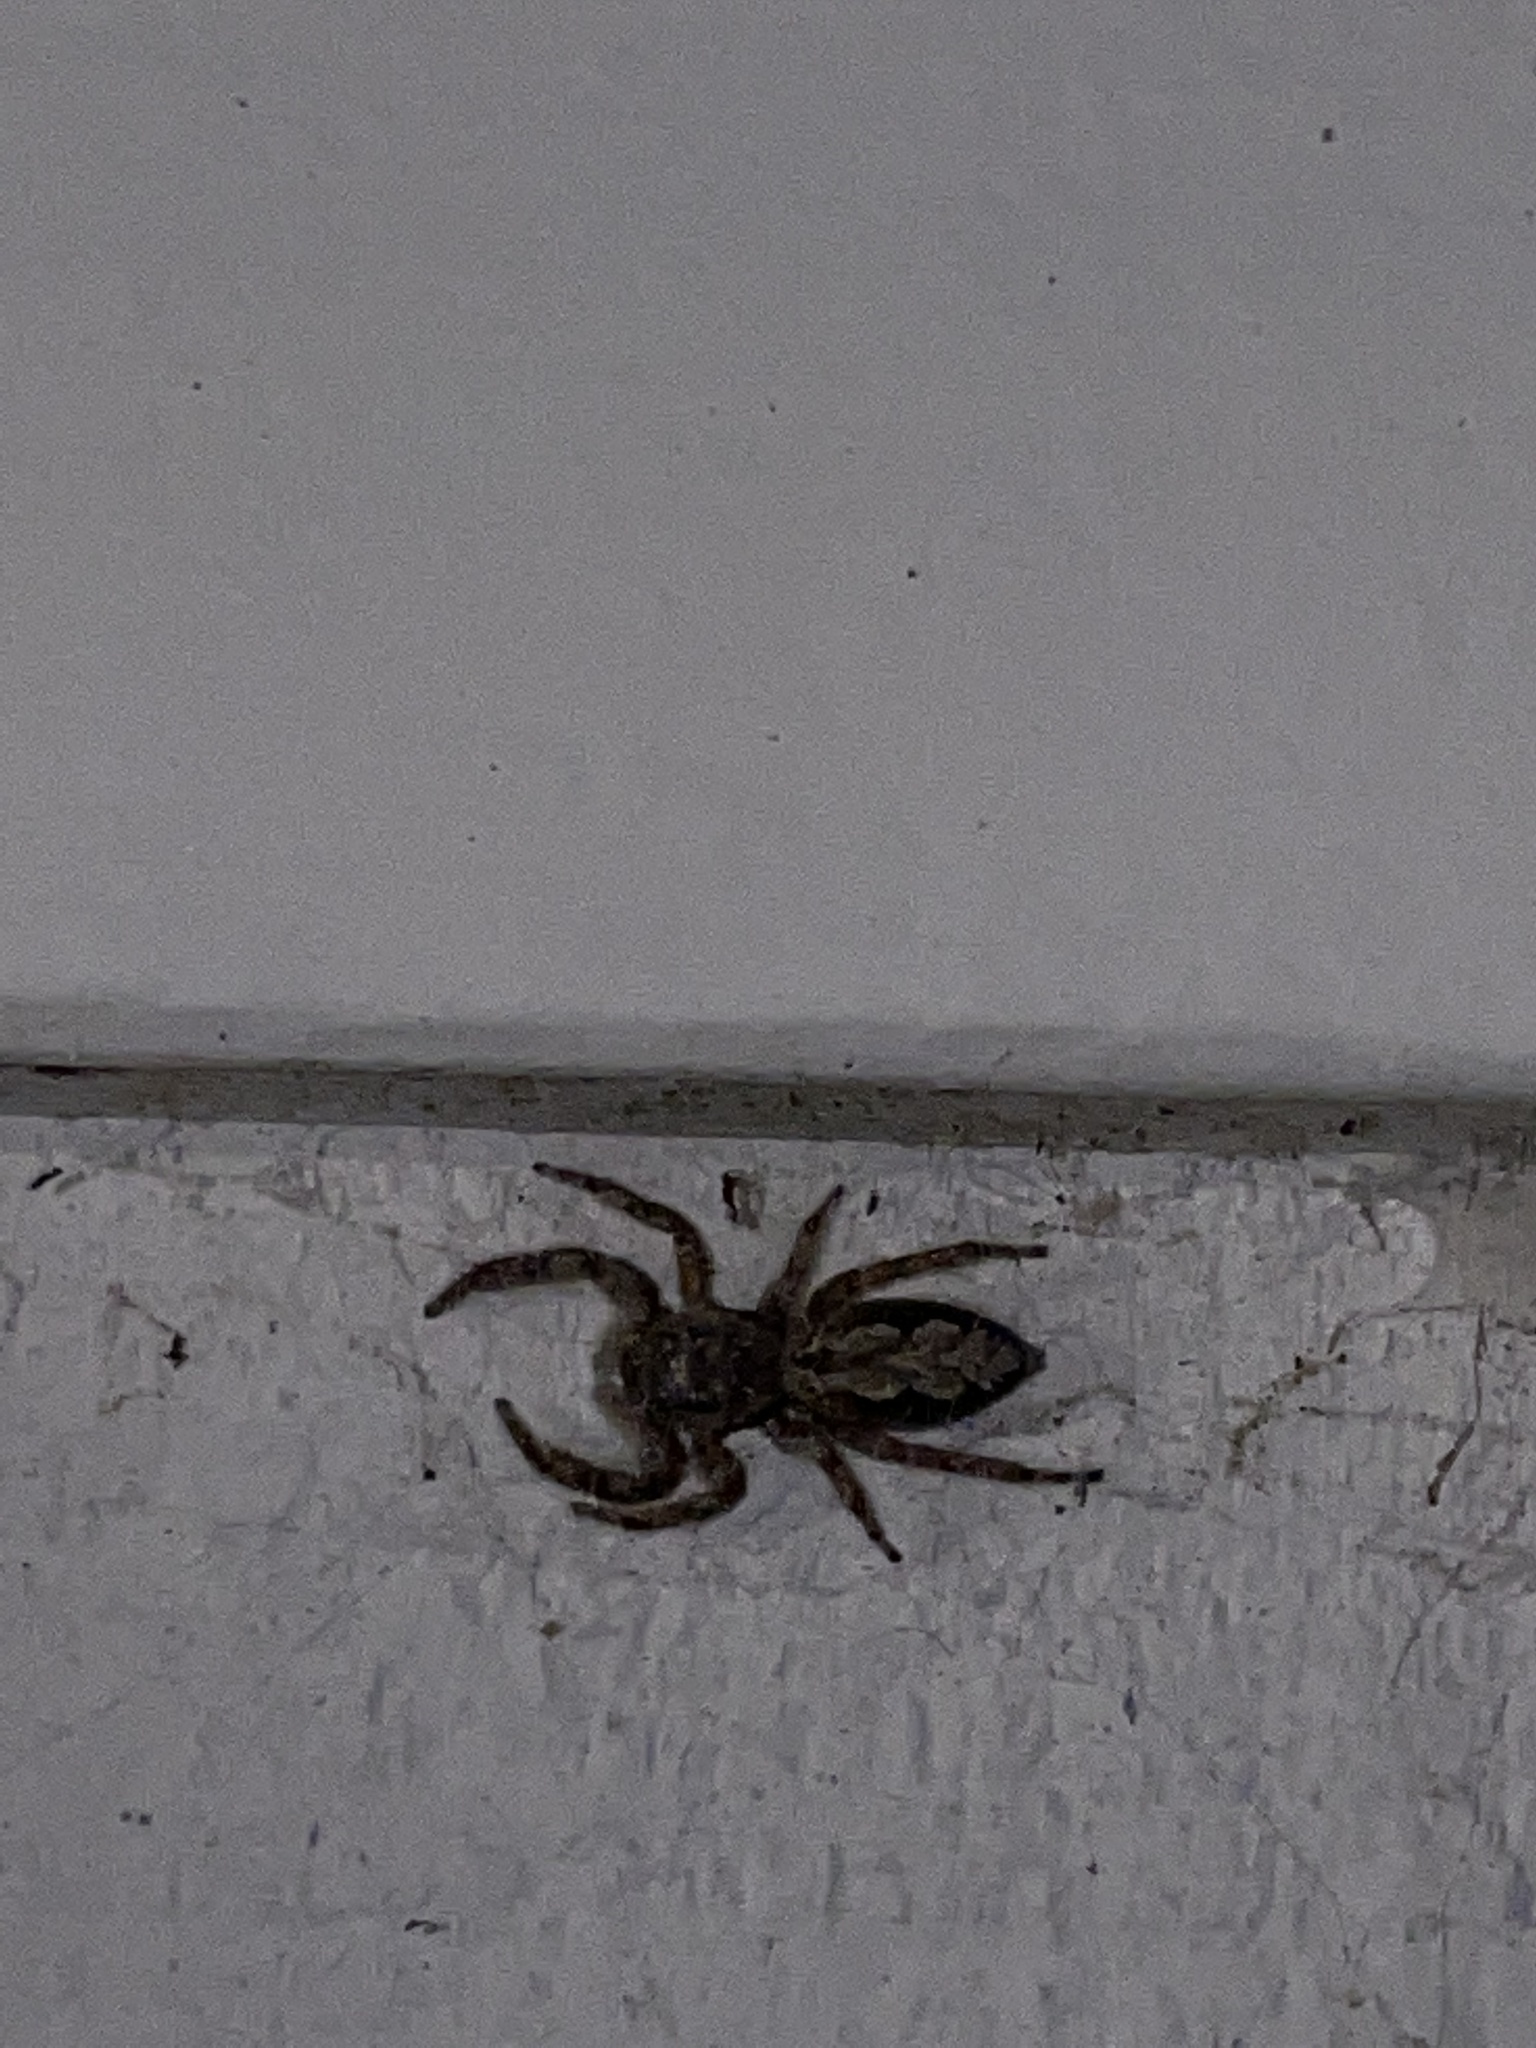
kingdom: Animalia
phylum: Arthropoda
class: Arachnida
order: Araneae
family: Salticidae
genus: Platycryptus
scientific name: Platycryptus undatus
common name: Tan jumping spider
